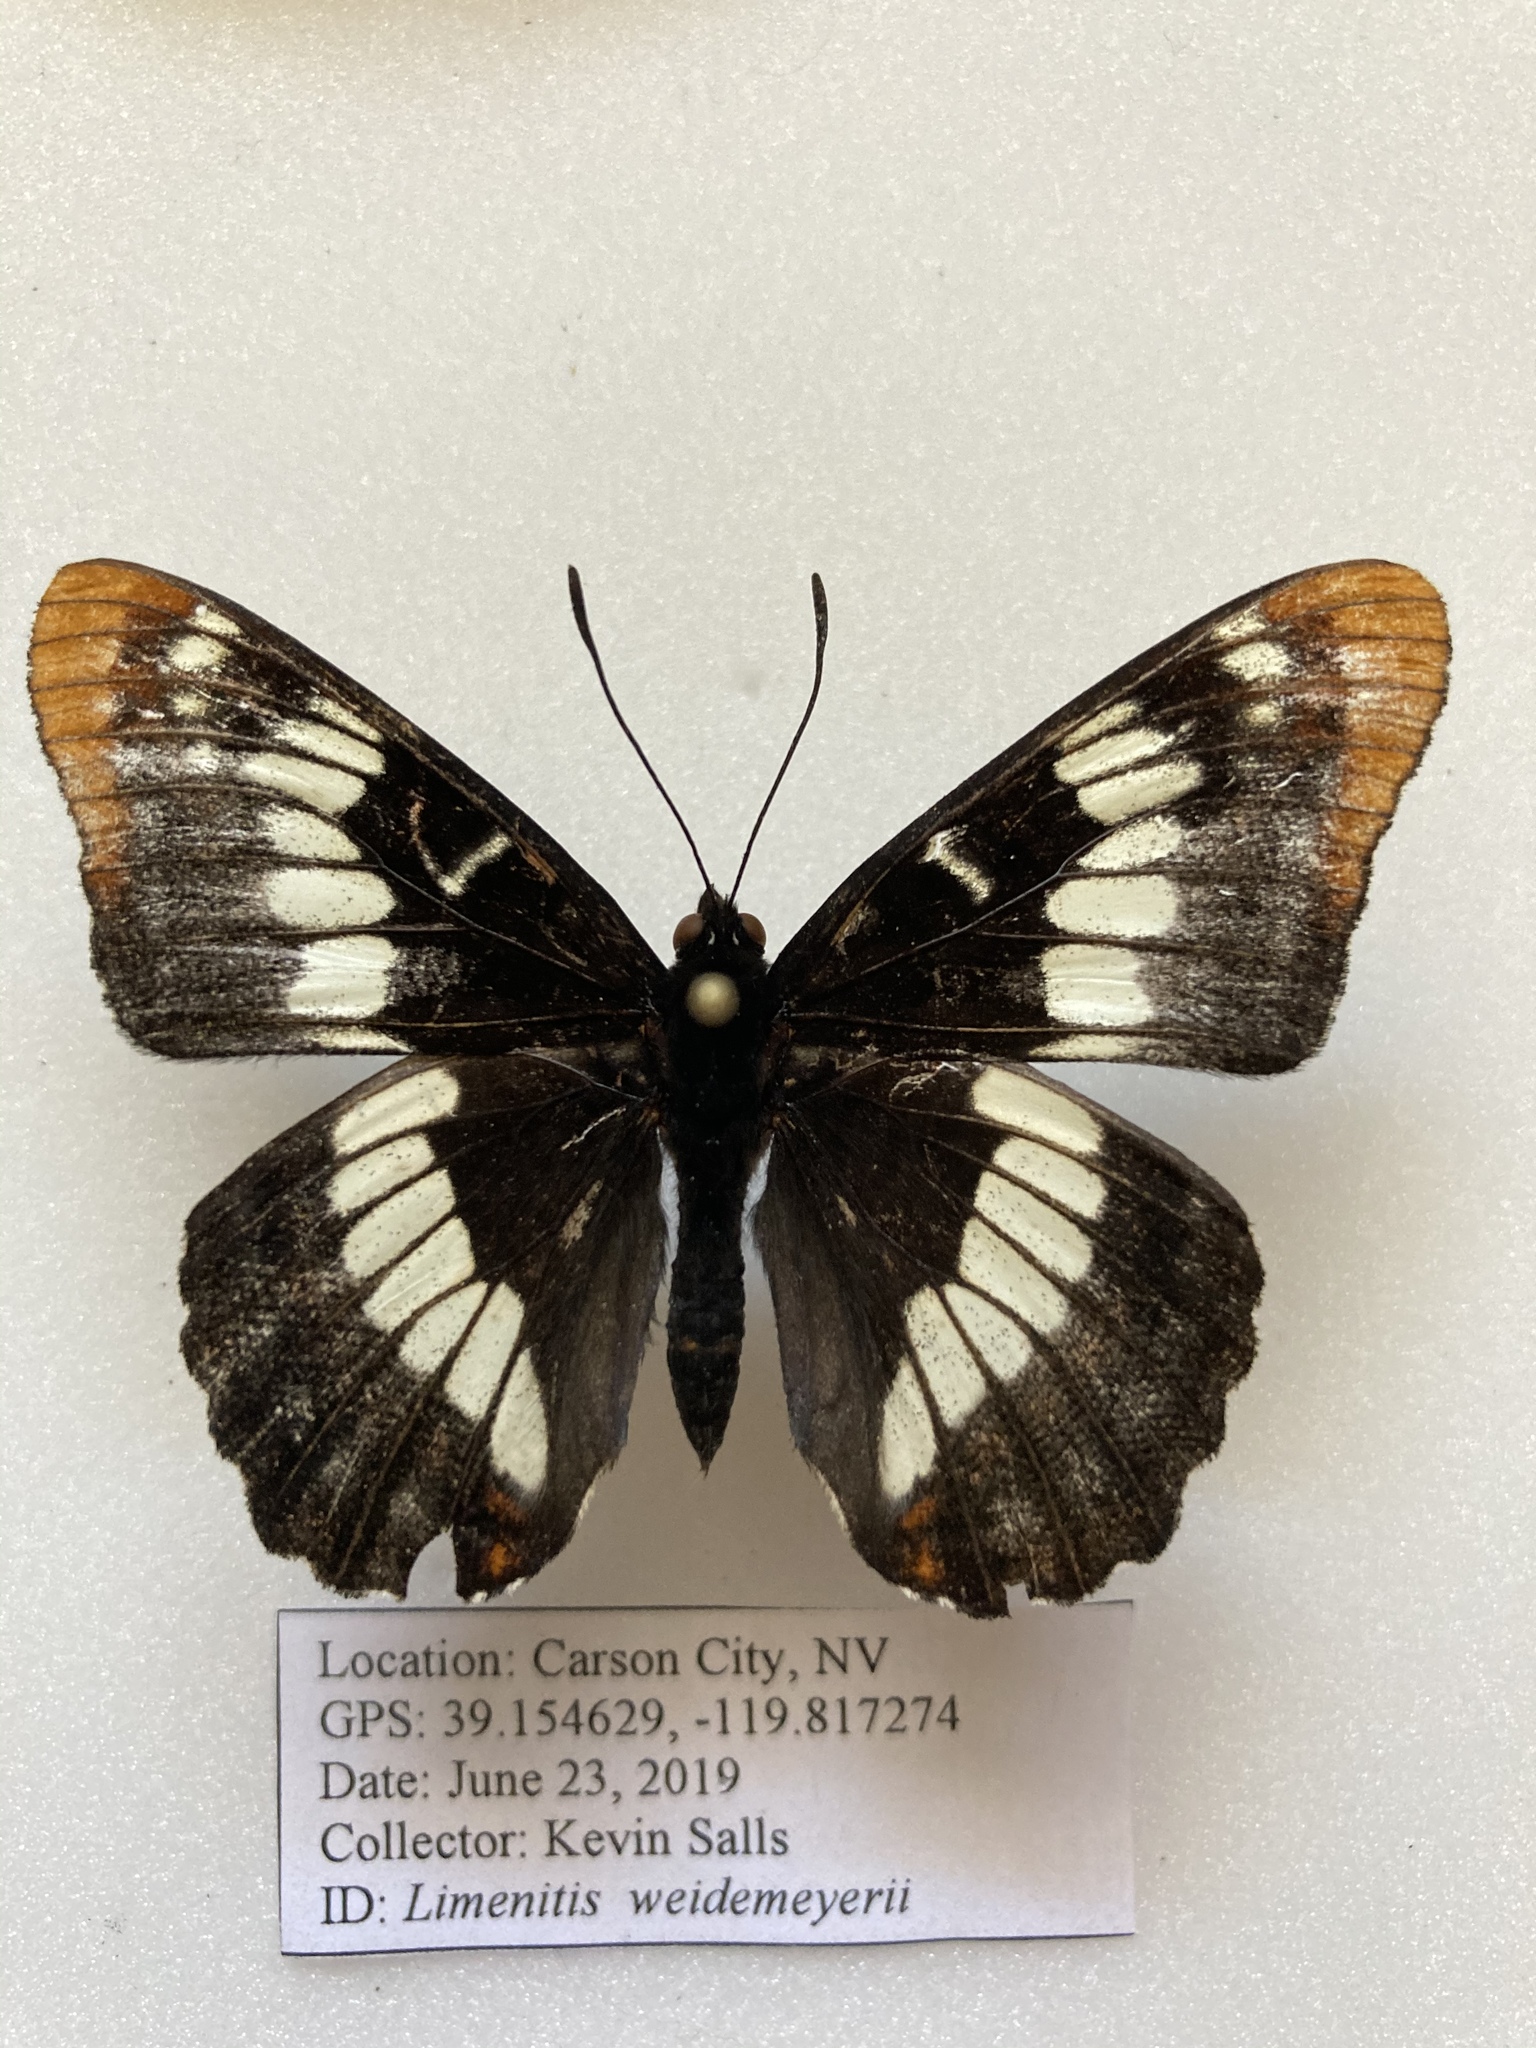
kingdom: Animalia
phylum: Arthropoda
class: Insecta
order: Lepidoptera
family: Nymphalidae
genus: Limenitis
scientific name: Limenitis lorquini
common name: Lorquin's admiral
